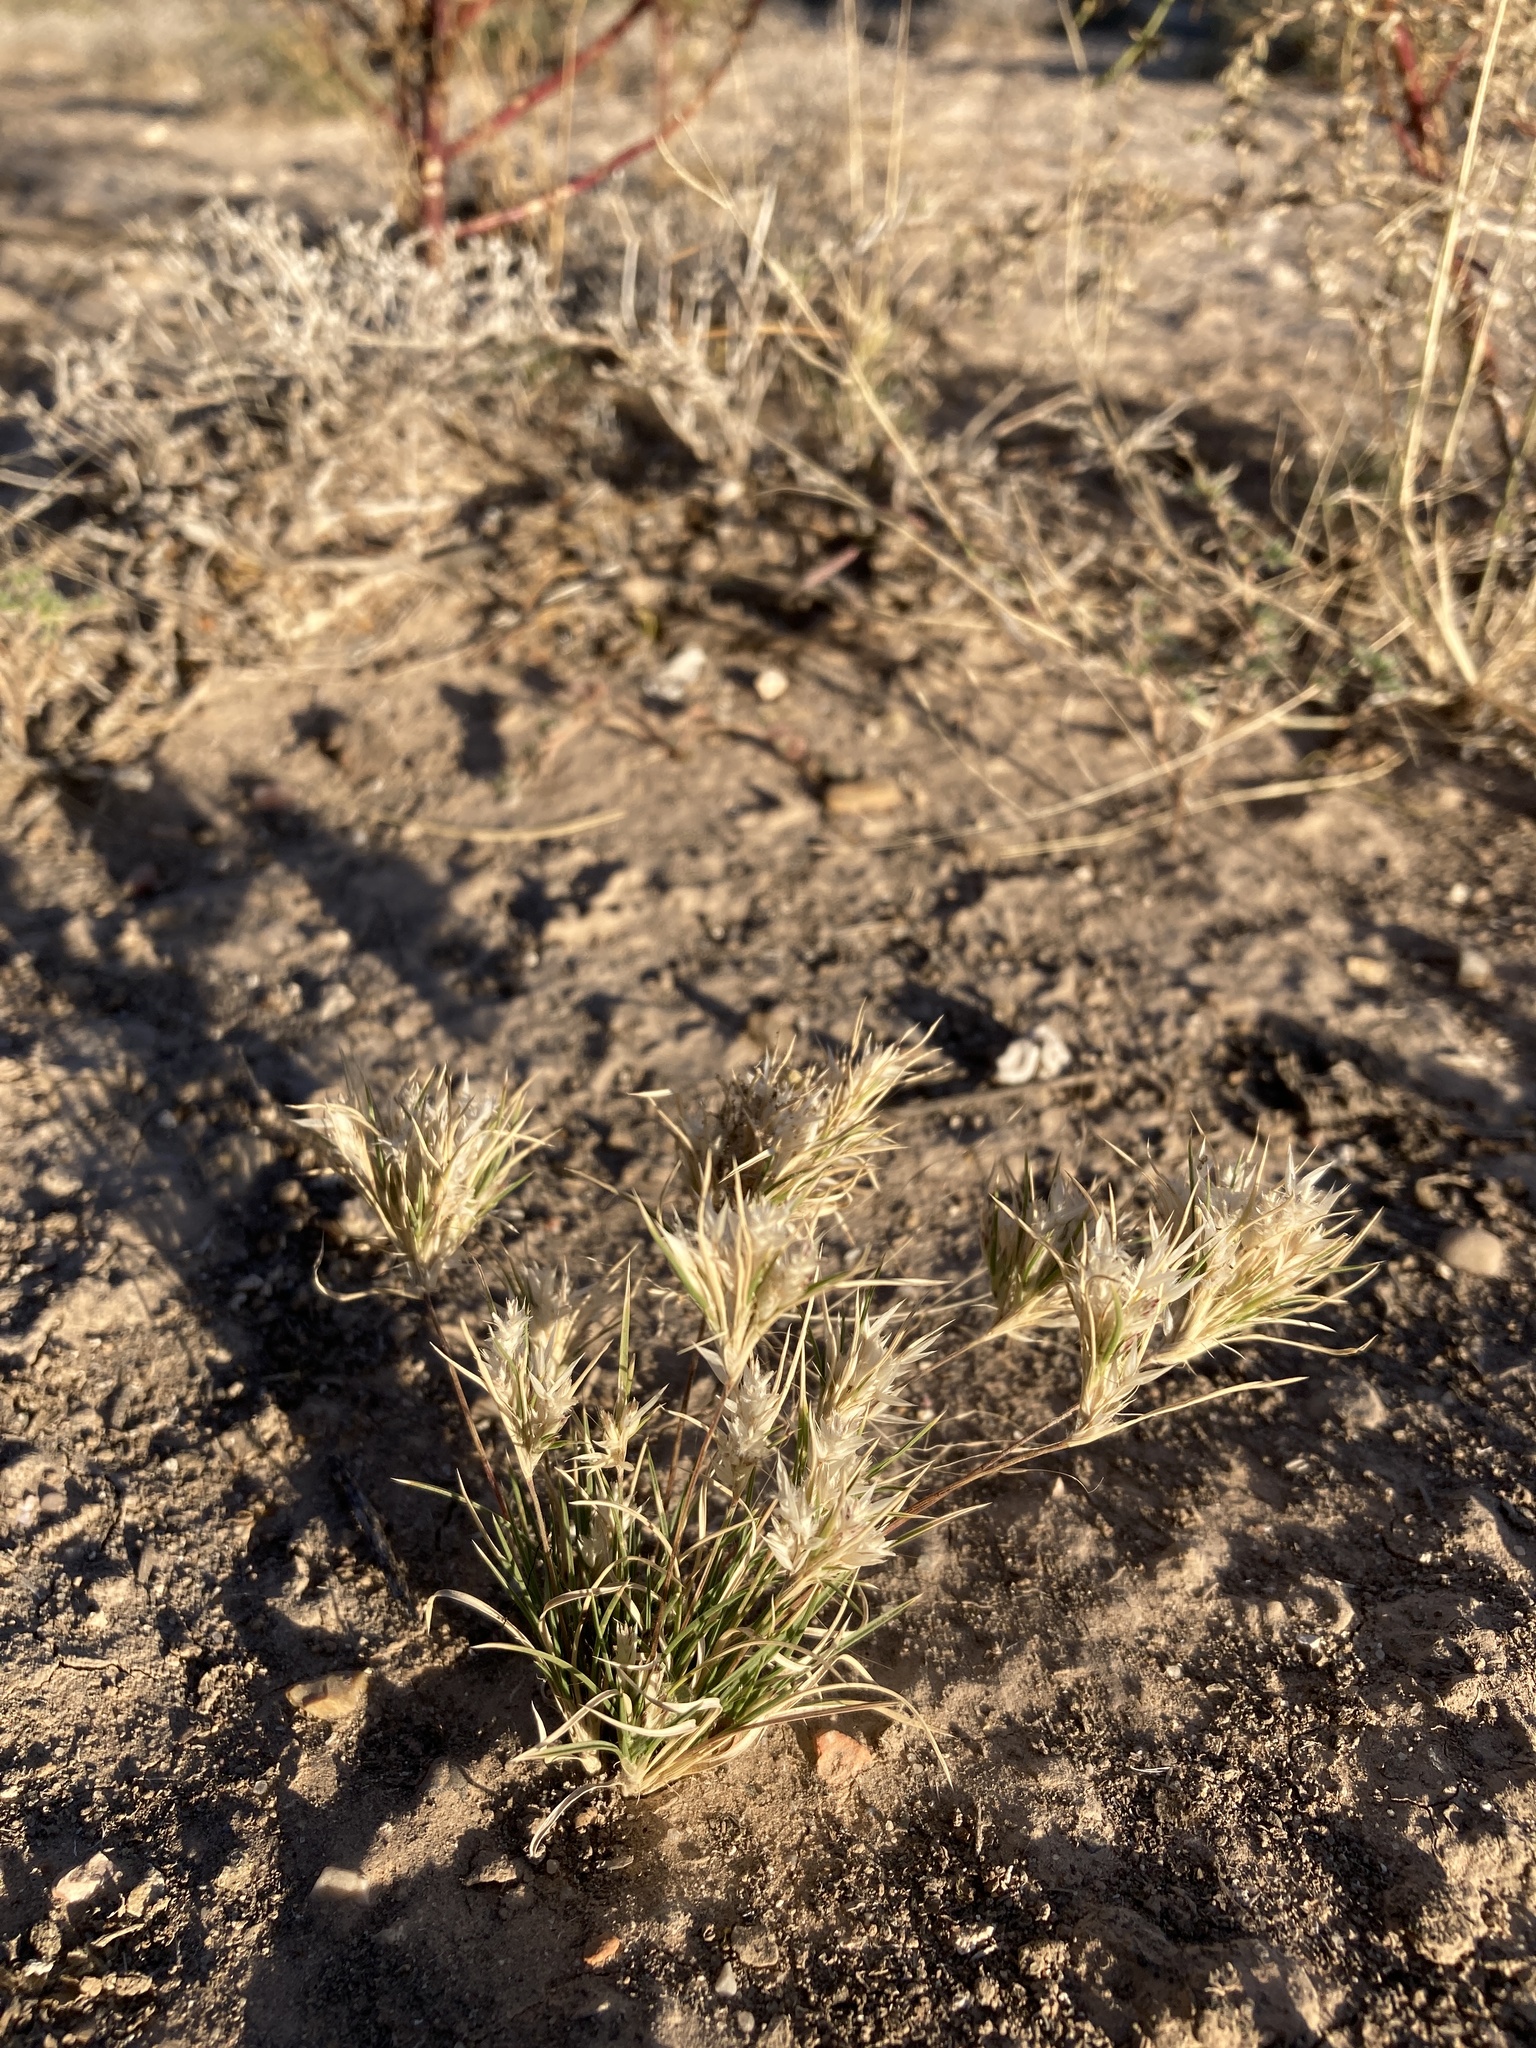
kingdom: Plantae
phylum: Tracheophyta
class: Liliopsida
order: Poales
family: Poaceae
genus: Dasyochloa
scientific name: Dasyochloa pulchella
